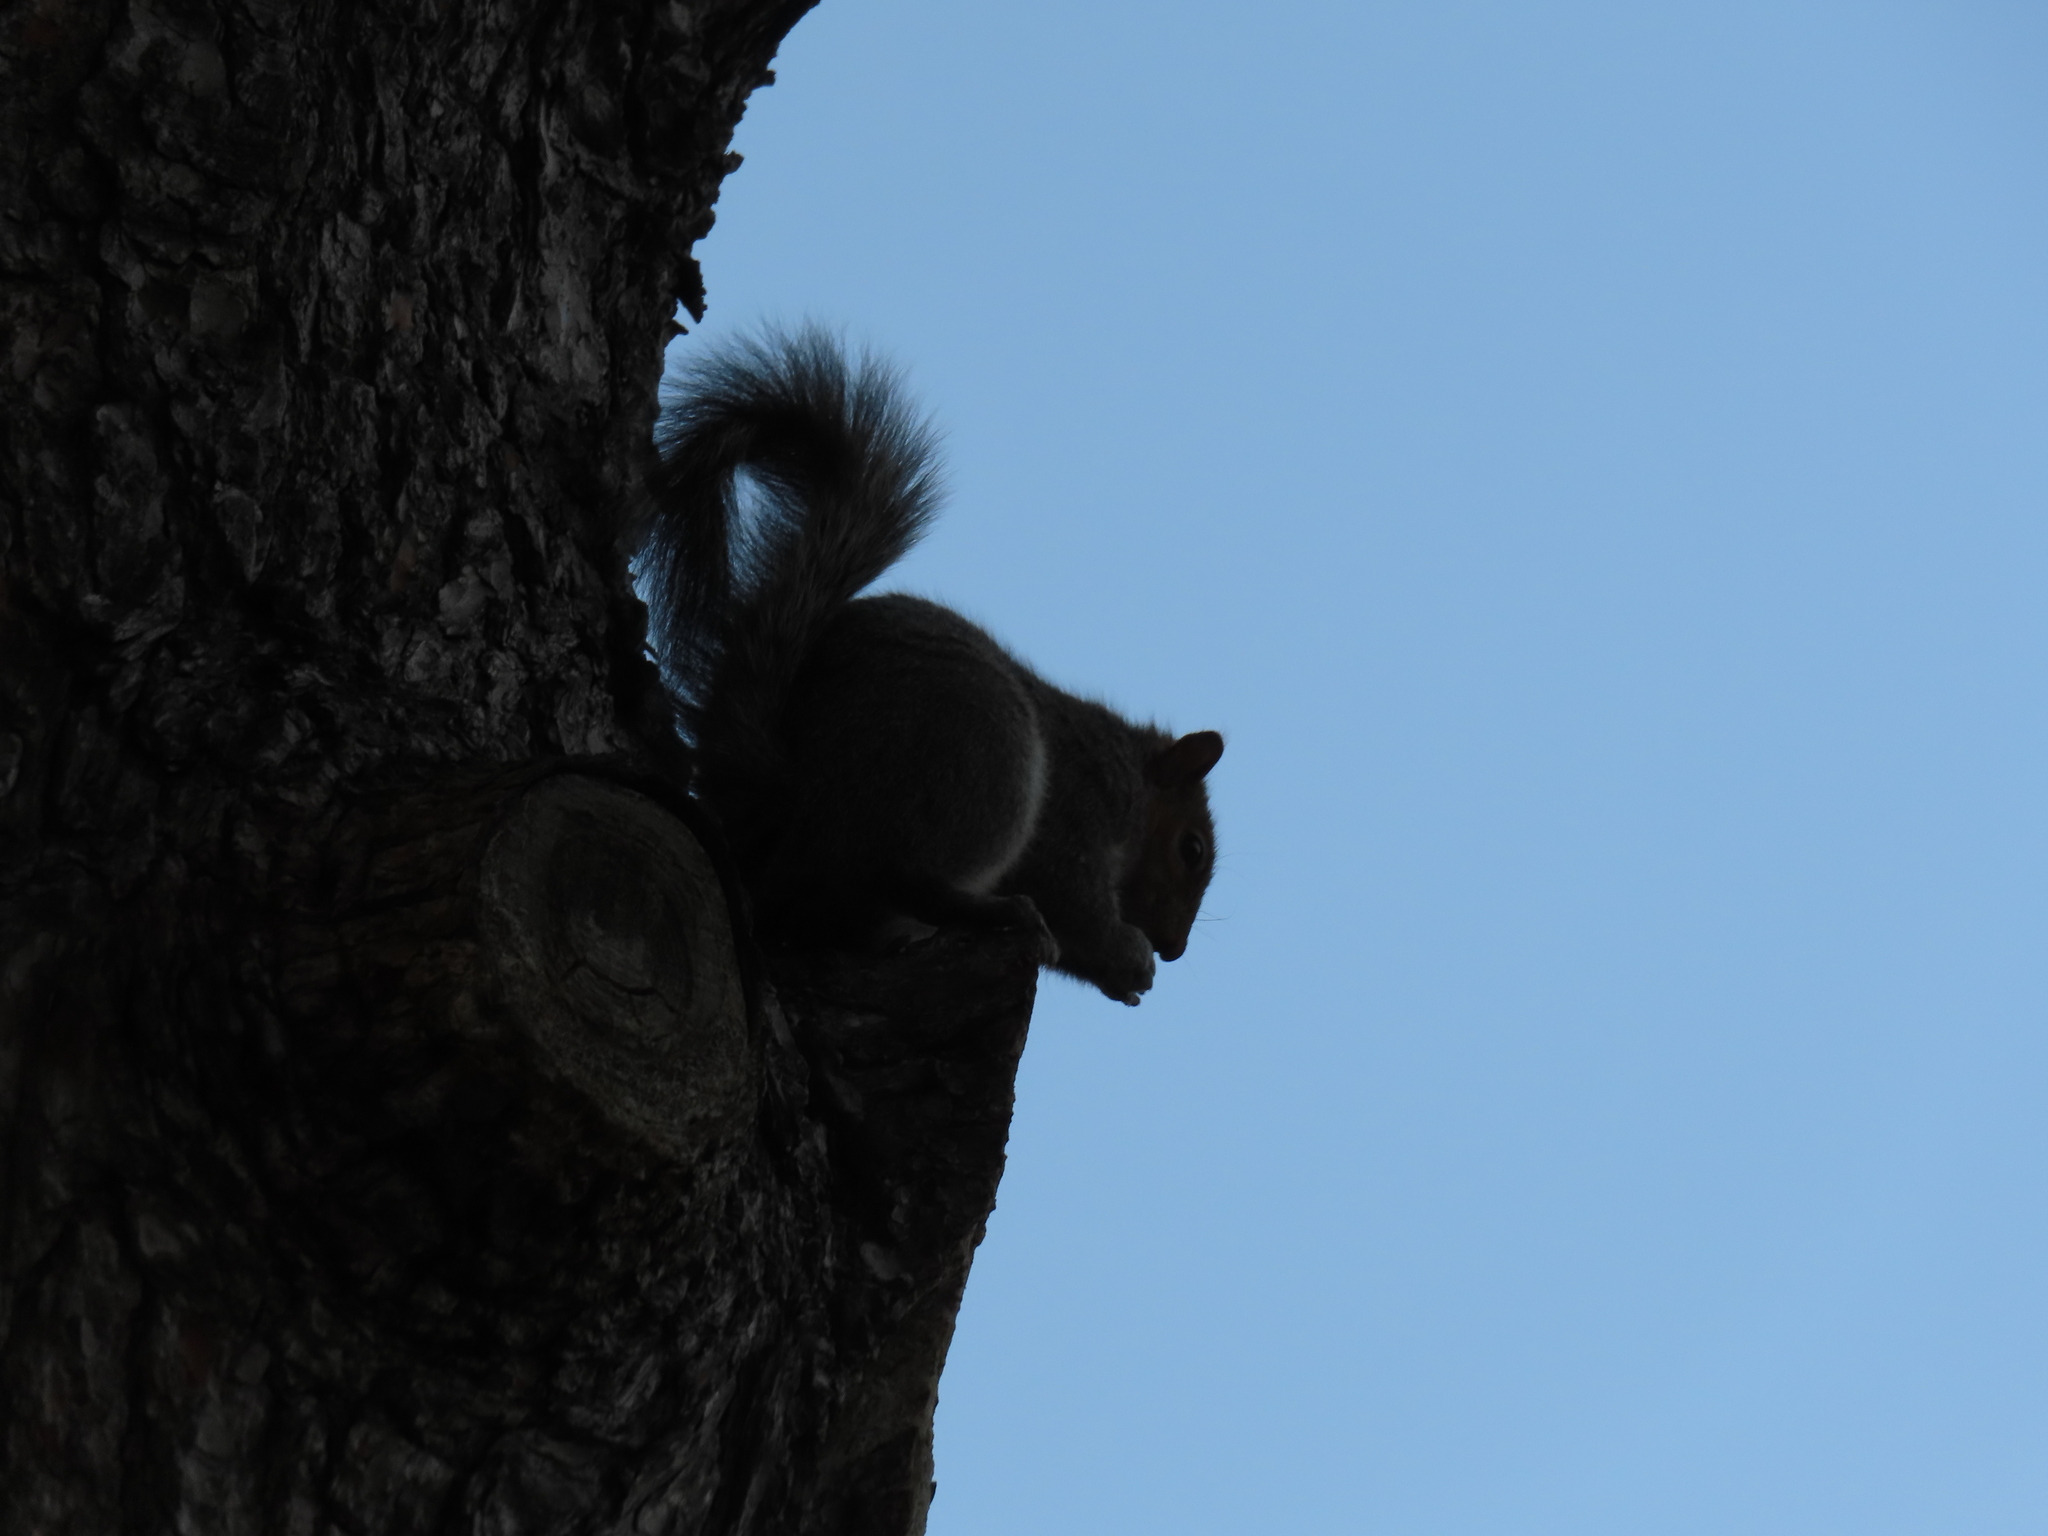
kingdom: Animalia
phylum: Chordata
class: Mammalia
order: Rodentia
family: Sciuridae
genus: Sciurus
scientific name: Sciurus carolinensis
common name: Eastern gray squirrel
